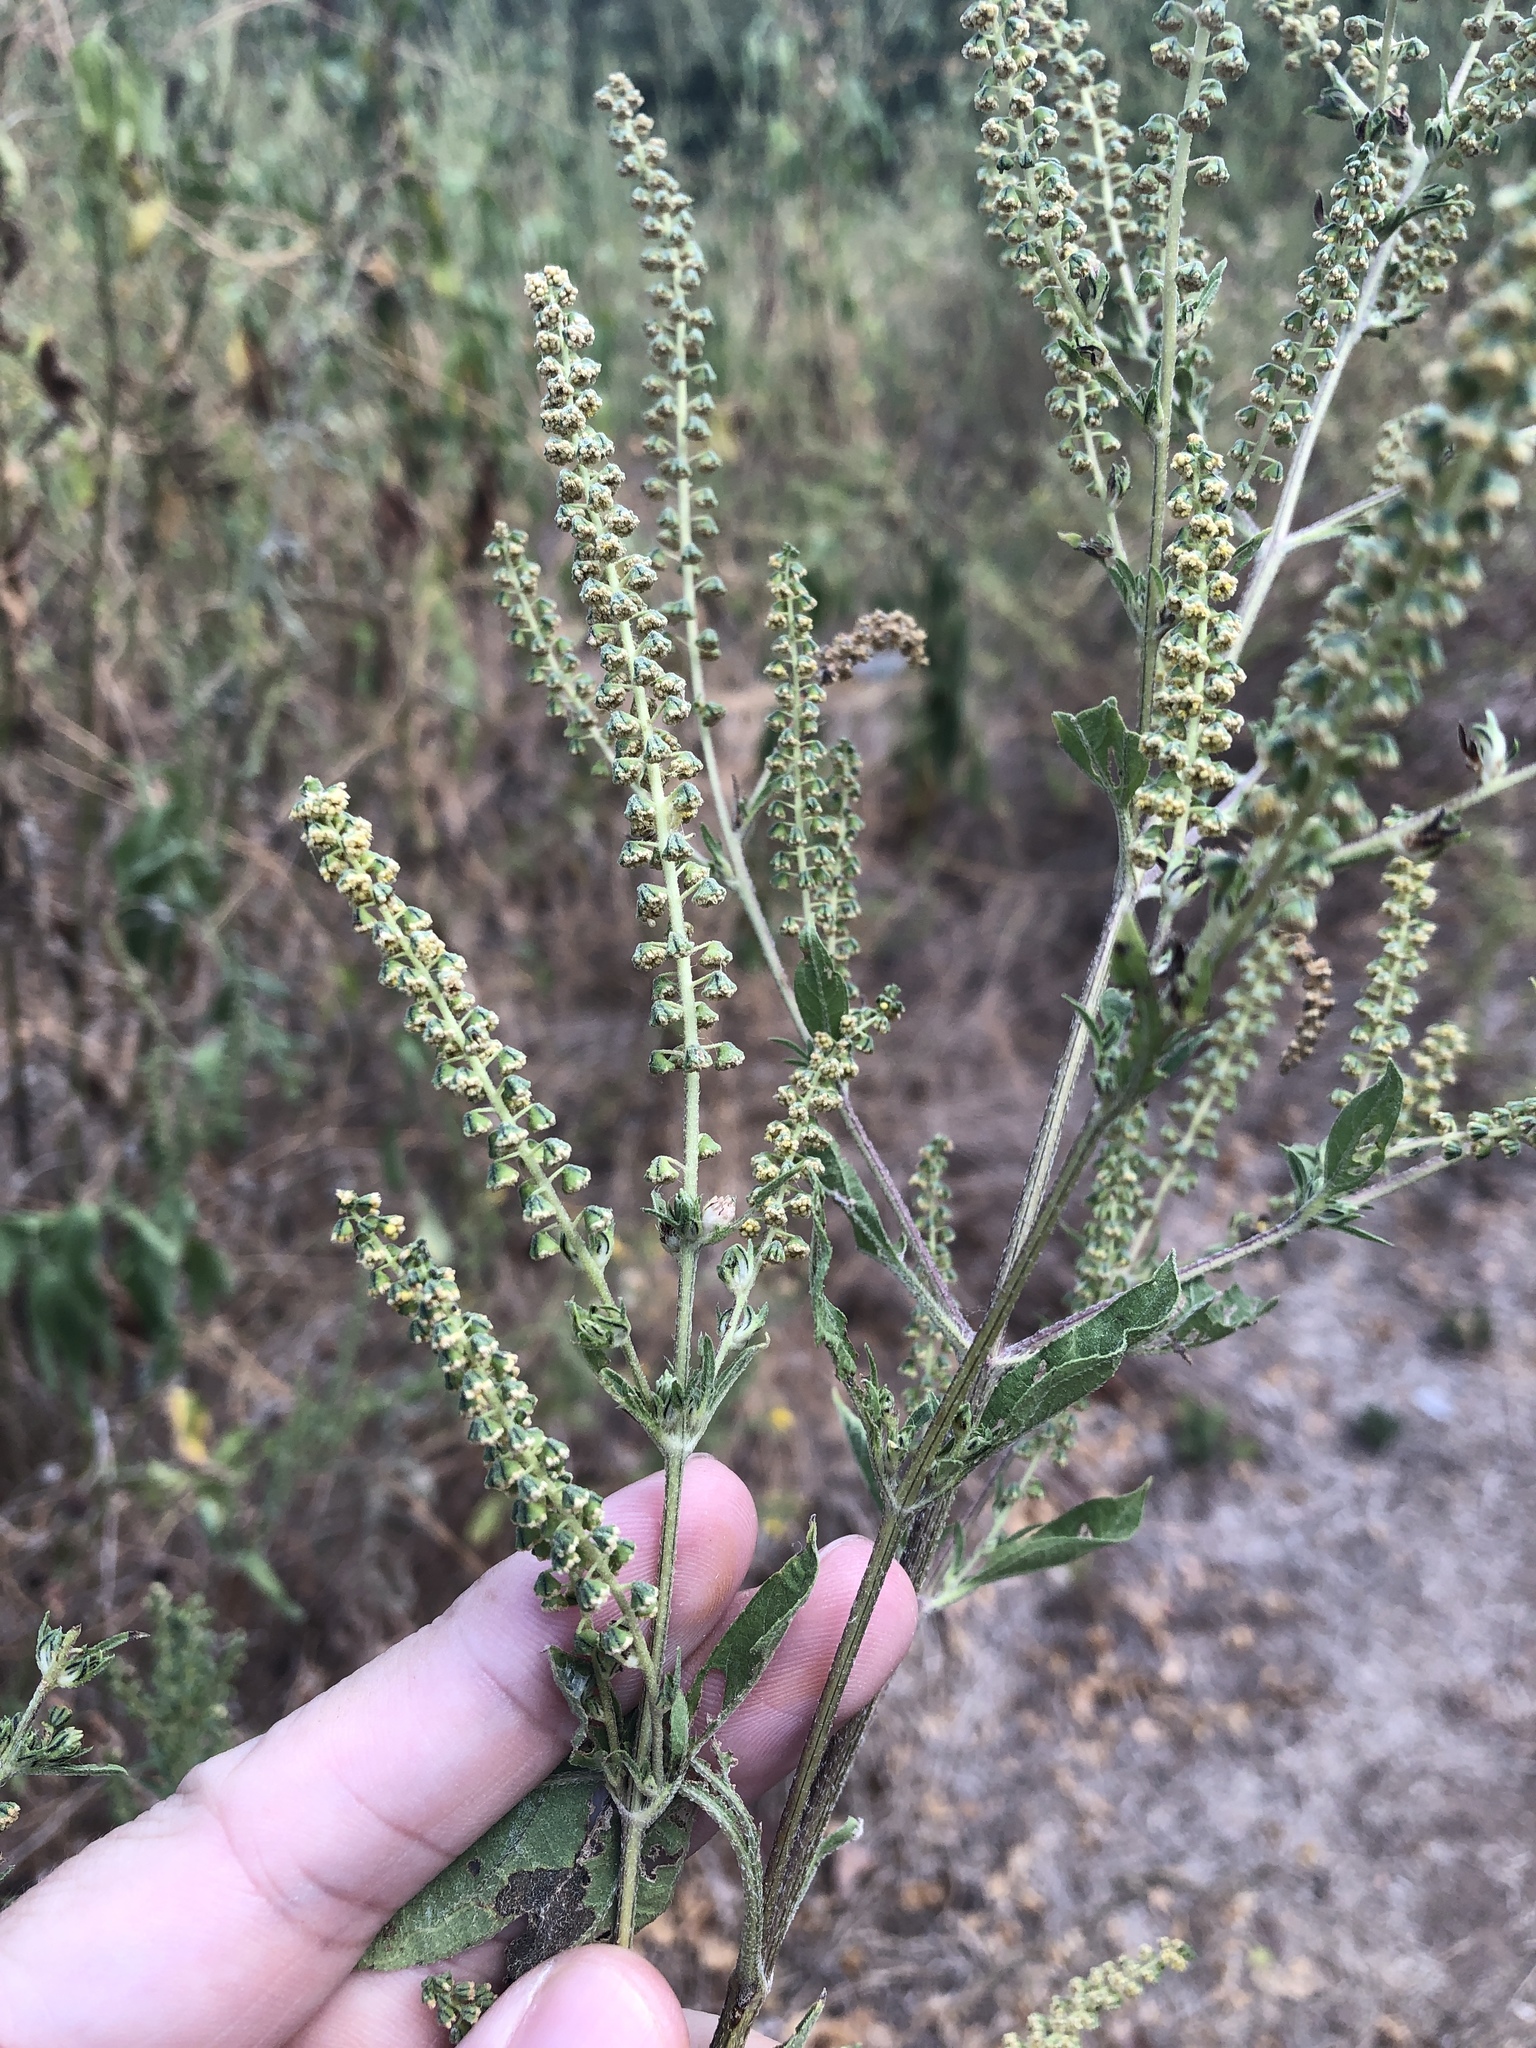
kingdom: Plantae
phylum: Tracheophyta
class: Magnoliopsida
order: Asterales
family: Asteraceae
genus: Ambrosia
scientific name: Ambrosia trifida
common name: Giant ragweed
